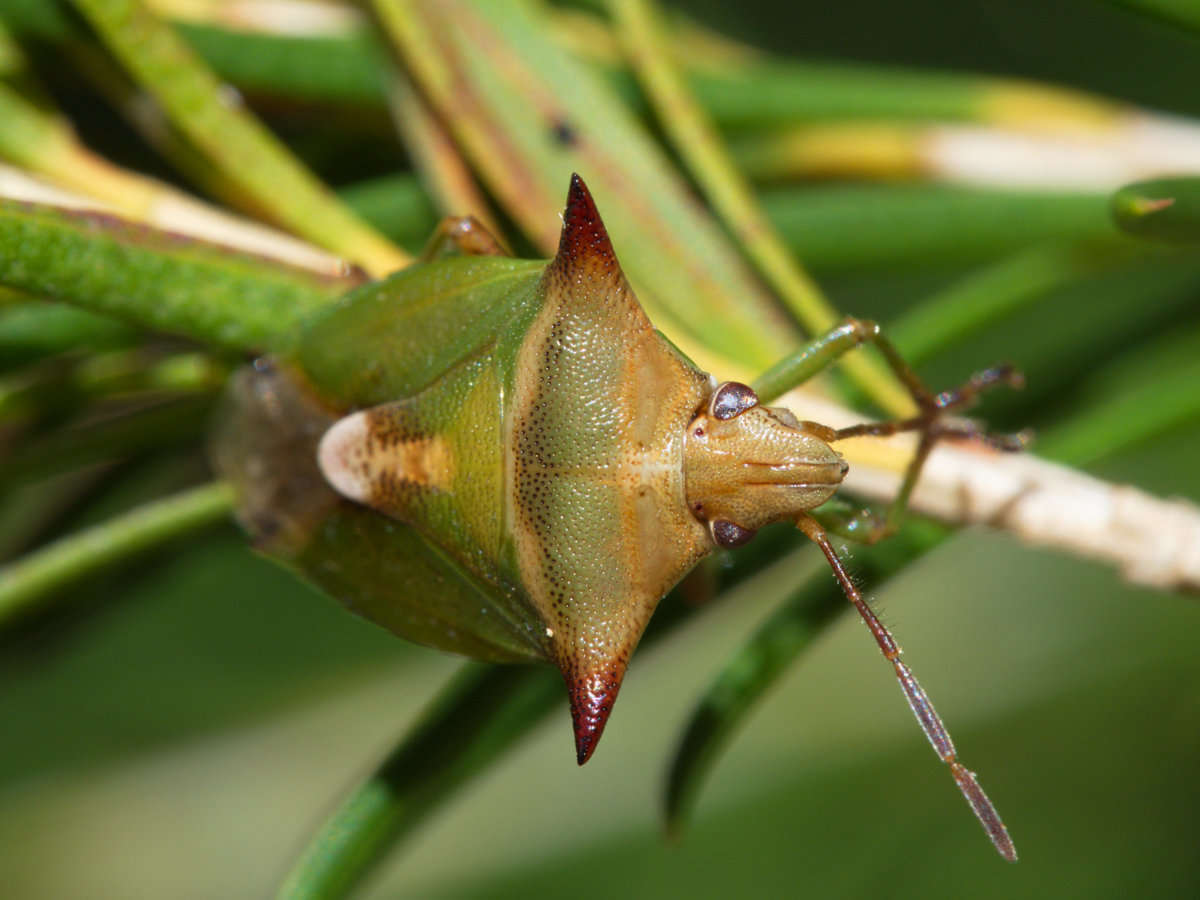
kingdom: Animalia
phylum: Arthropoda
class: Insecta
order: Hemiptera
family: Pentatomidae
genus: Cuspicona
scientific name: Cuspicona
